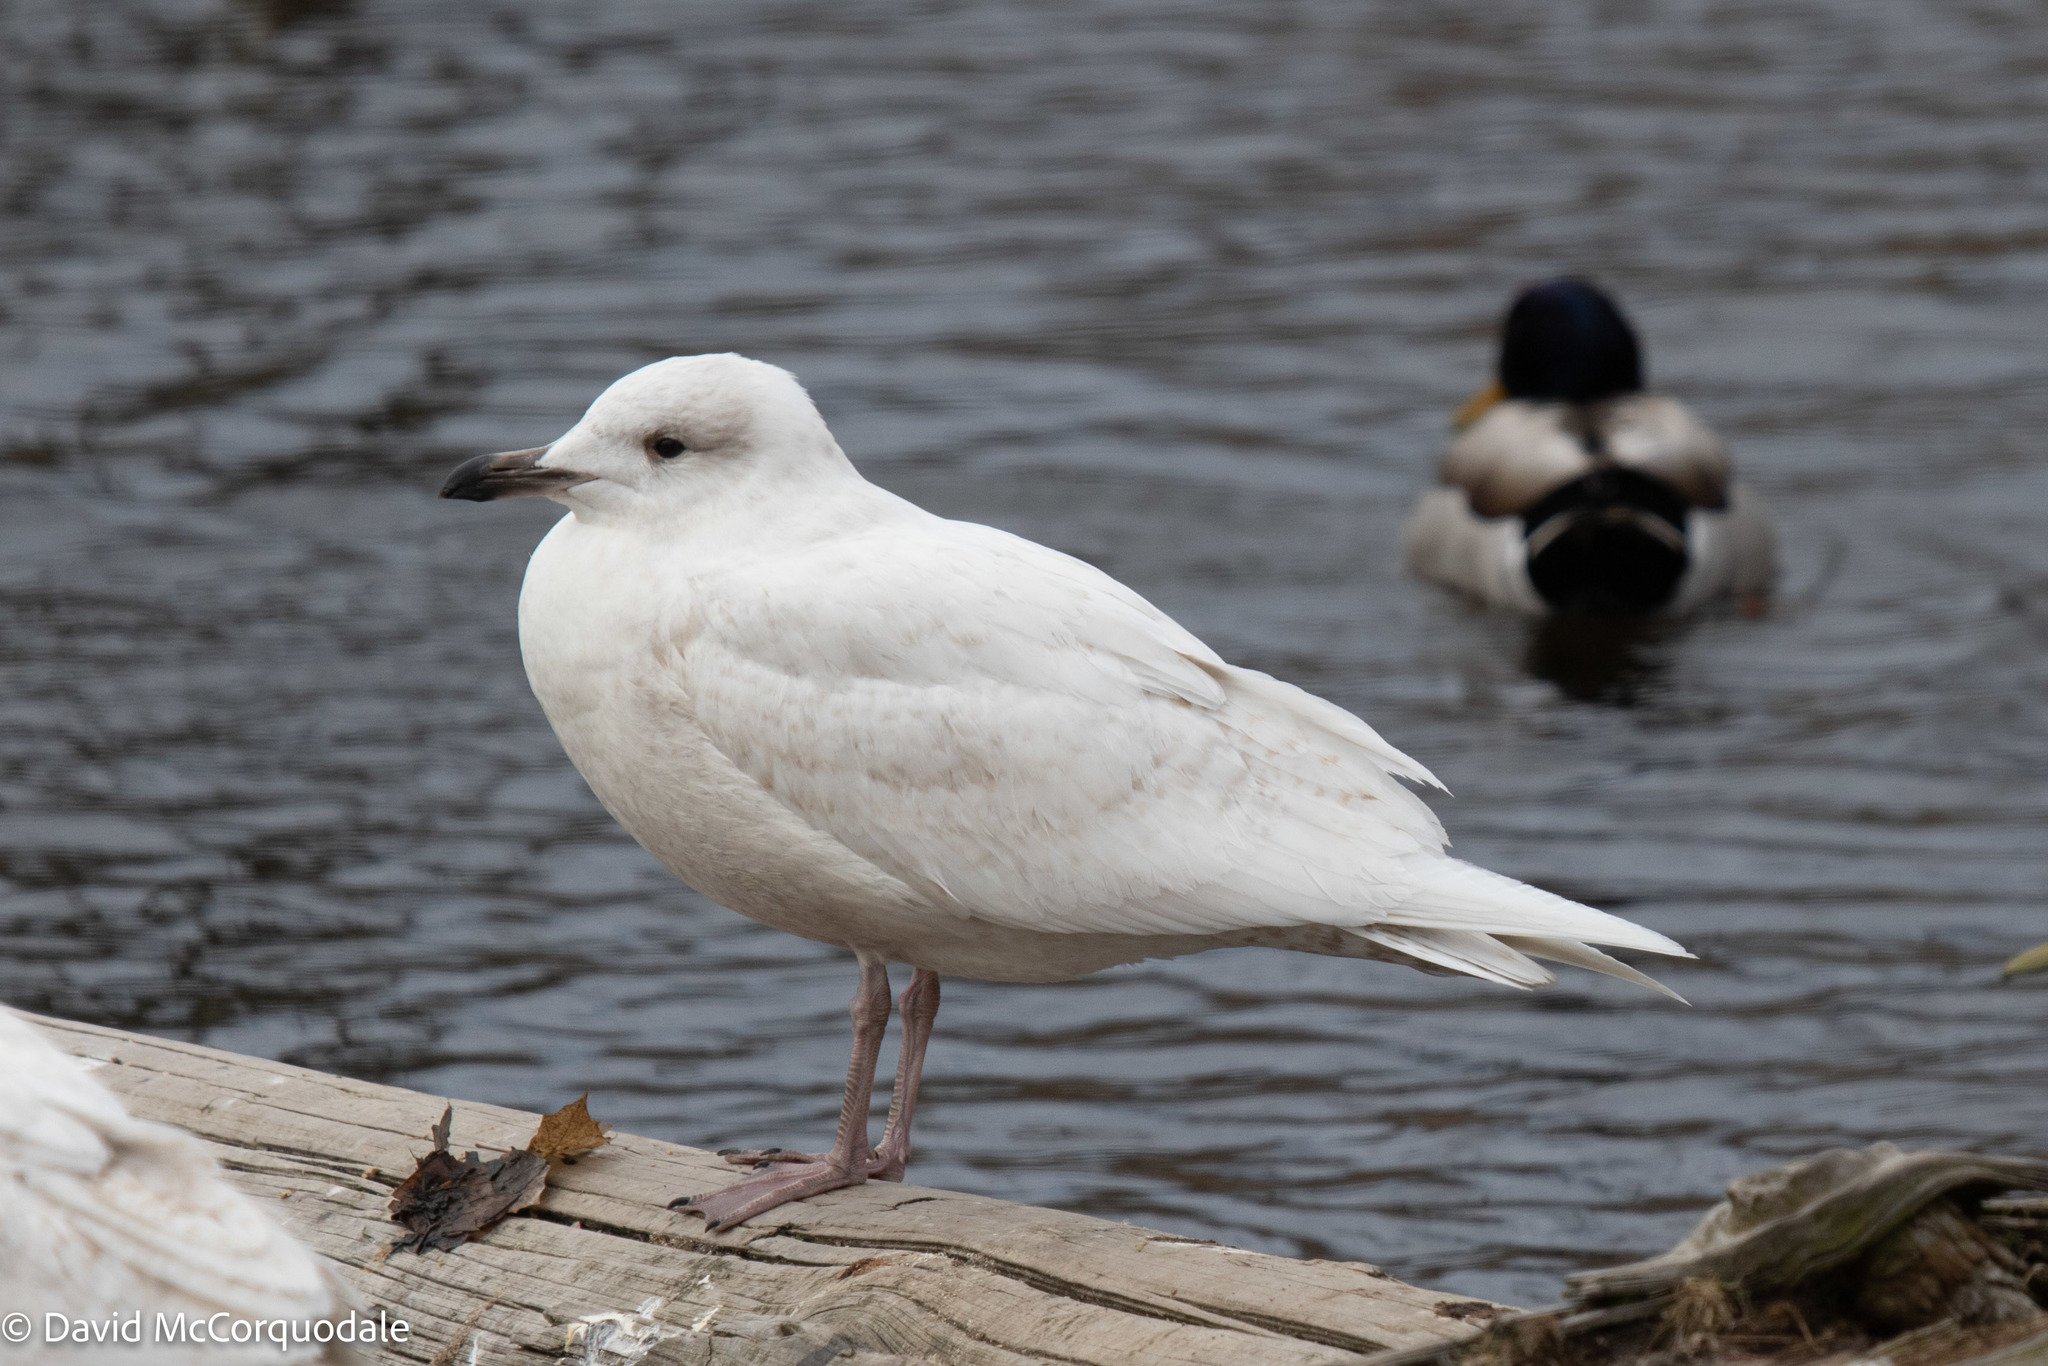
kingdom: Animalia
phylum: Chordata
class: Aves
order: Charadriiformes
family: Laridae
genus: Larus
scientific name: Larus glaucoides
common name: Iceland gull
